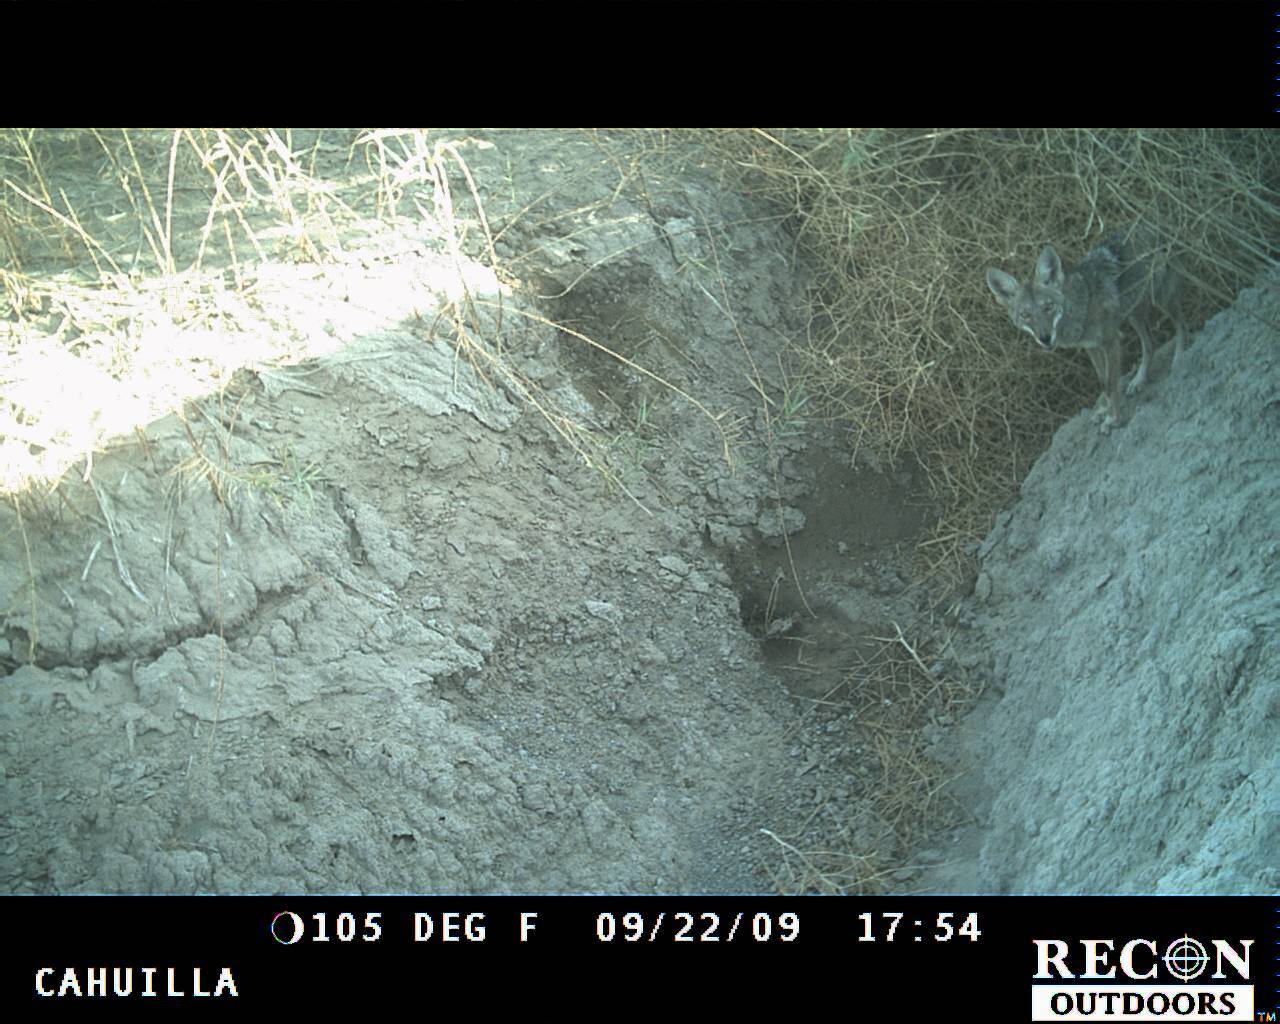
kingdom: Animalia
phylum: Chordata
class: Mammalia
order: Carnivora
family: Canidae
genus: Canis
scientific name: Canis latrans
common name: Coyote
